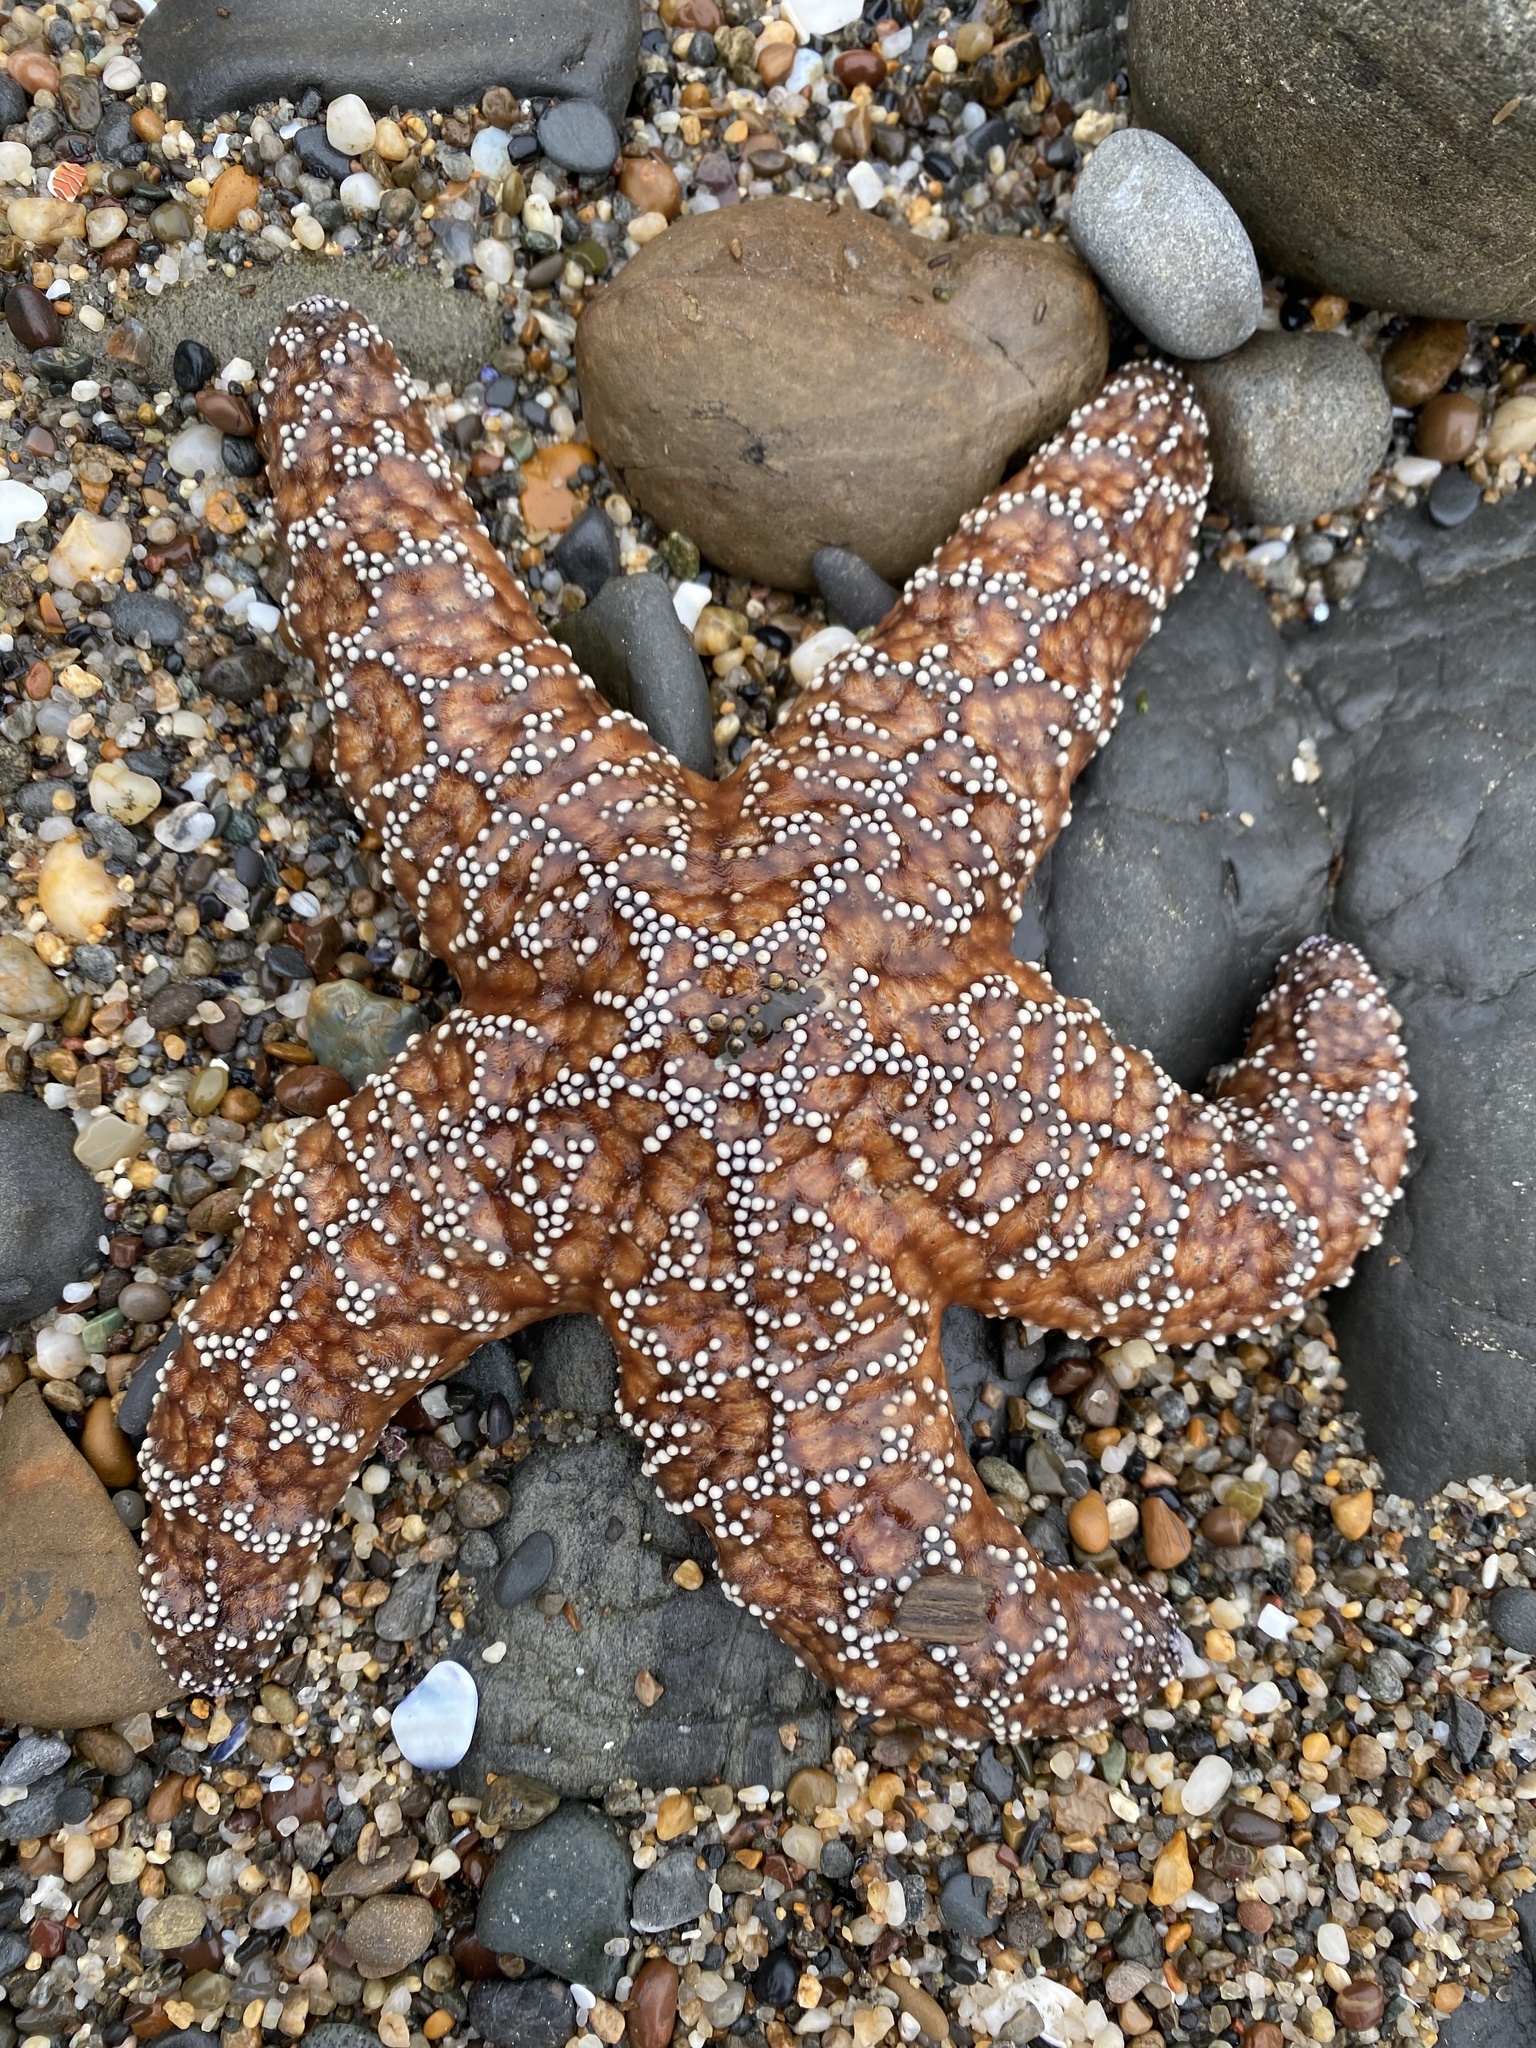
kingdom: Animalia
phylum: Echinodermata
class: Asteroidea
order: Forcipulatida
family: Asteriidae
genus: Pisaster
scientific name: Pisaster ochraceus
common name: Ochre stars
